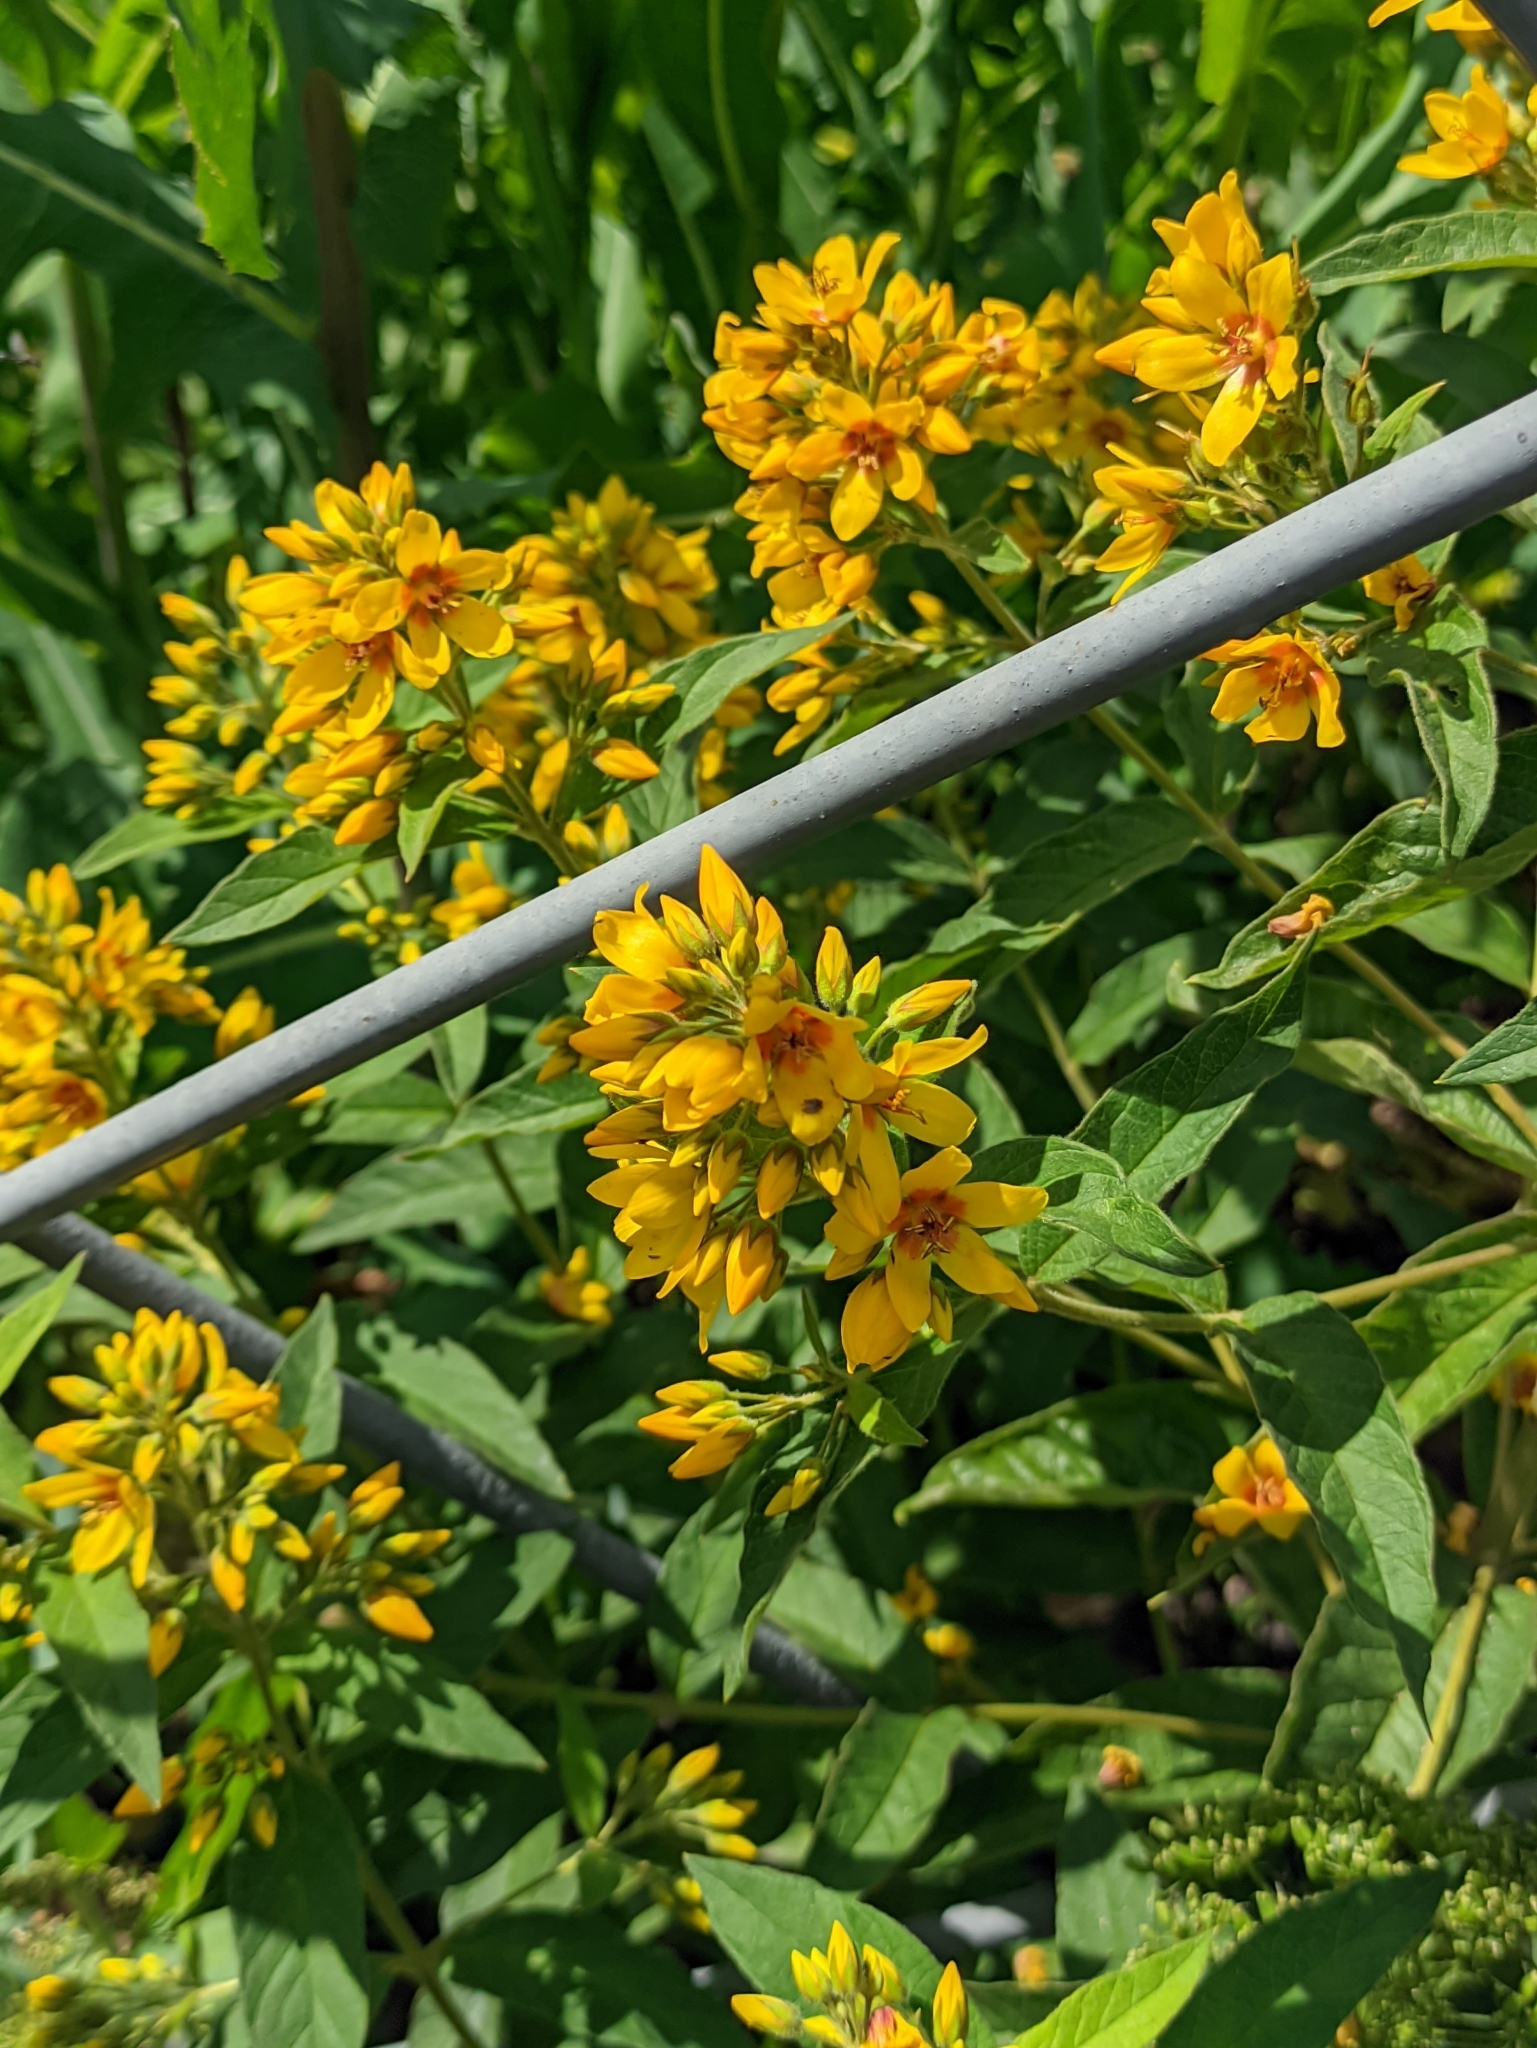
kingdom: Plantae
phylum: Tracheophyta
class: Magnoliopsida
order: Ericales
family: Primulaceae
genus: Lysimachia
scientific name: Lysimachia vulgaris
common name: Yellow loosestrife
